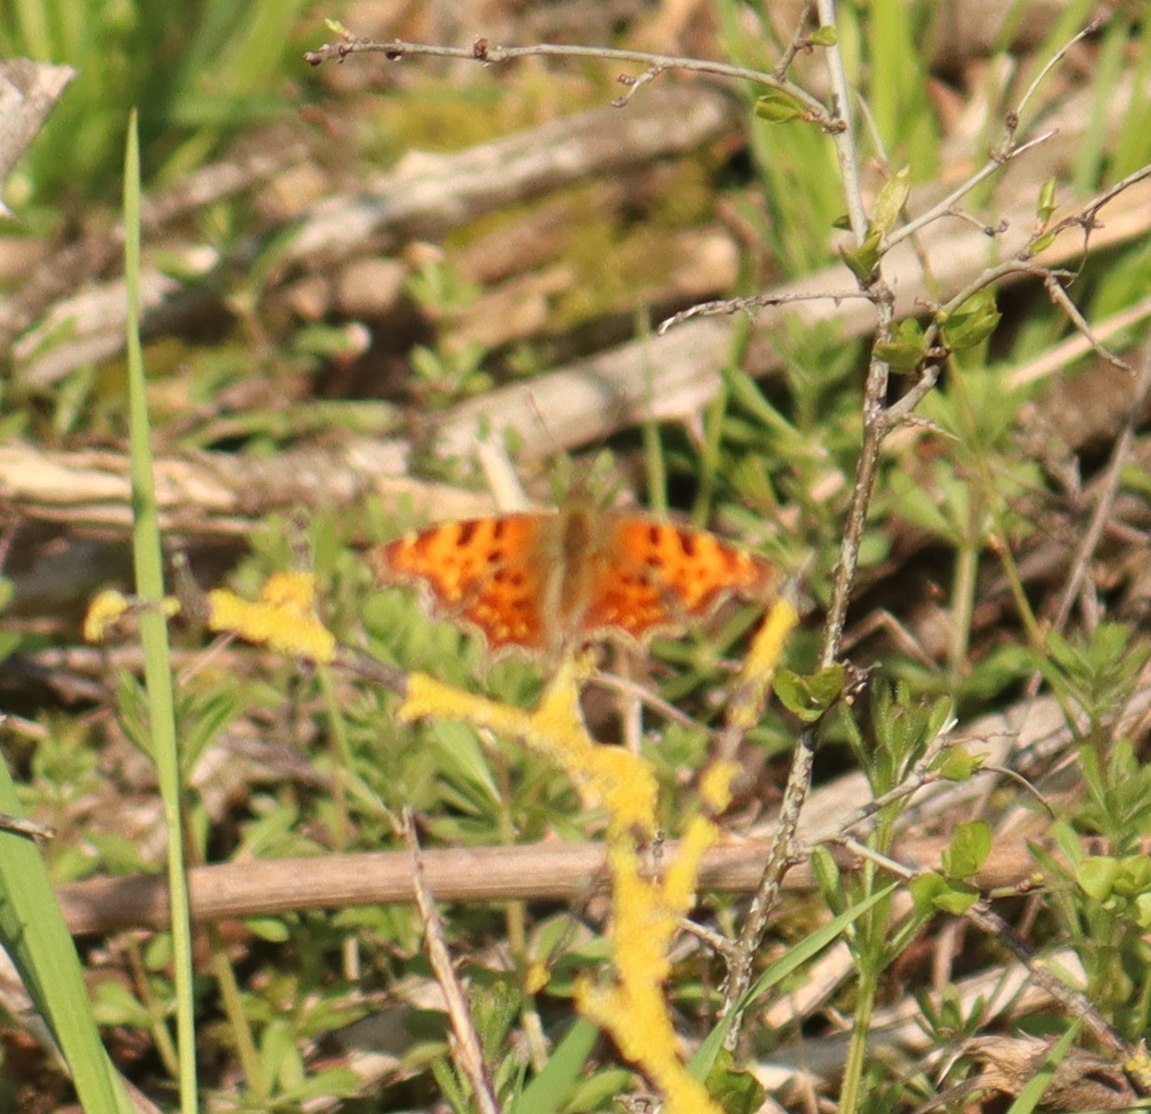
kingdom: Animalia
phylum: Arthropoda
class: Insecta
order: Lepidoptera
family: Nymphalidae
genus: Polygonia
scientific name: Polygonia c-album
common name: Comma
